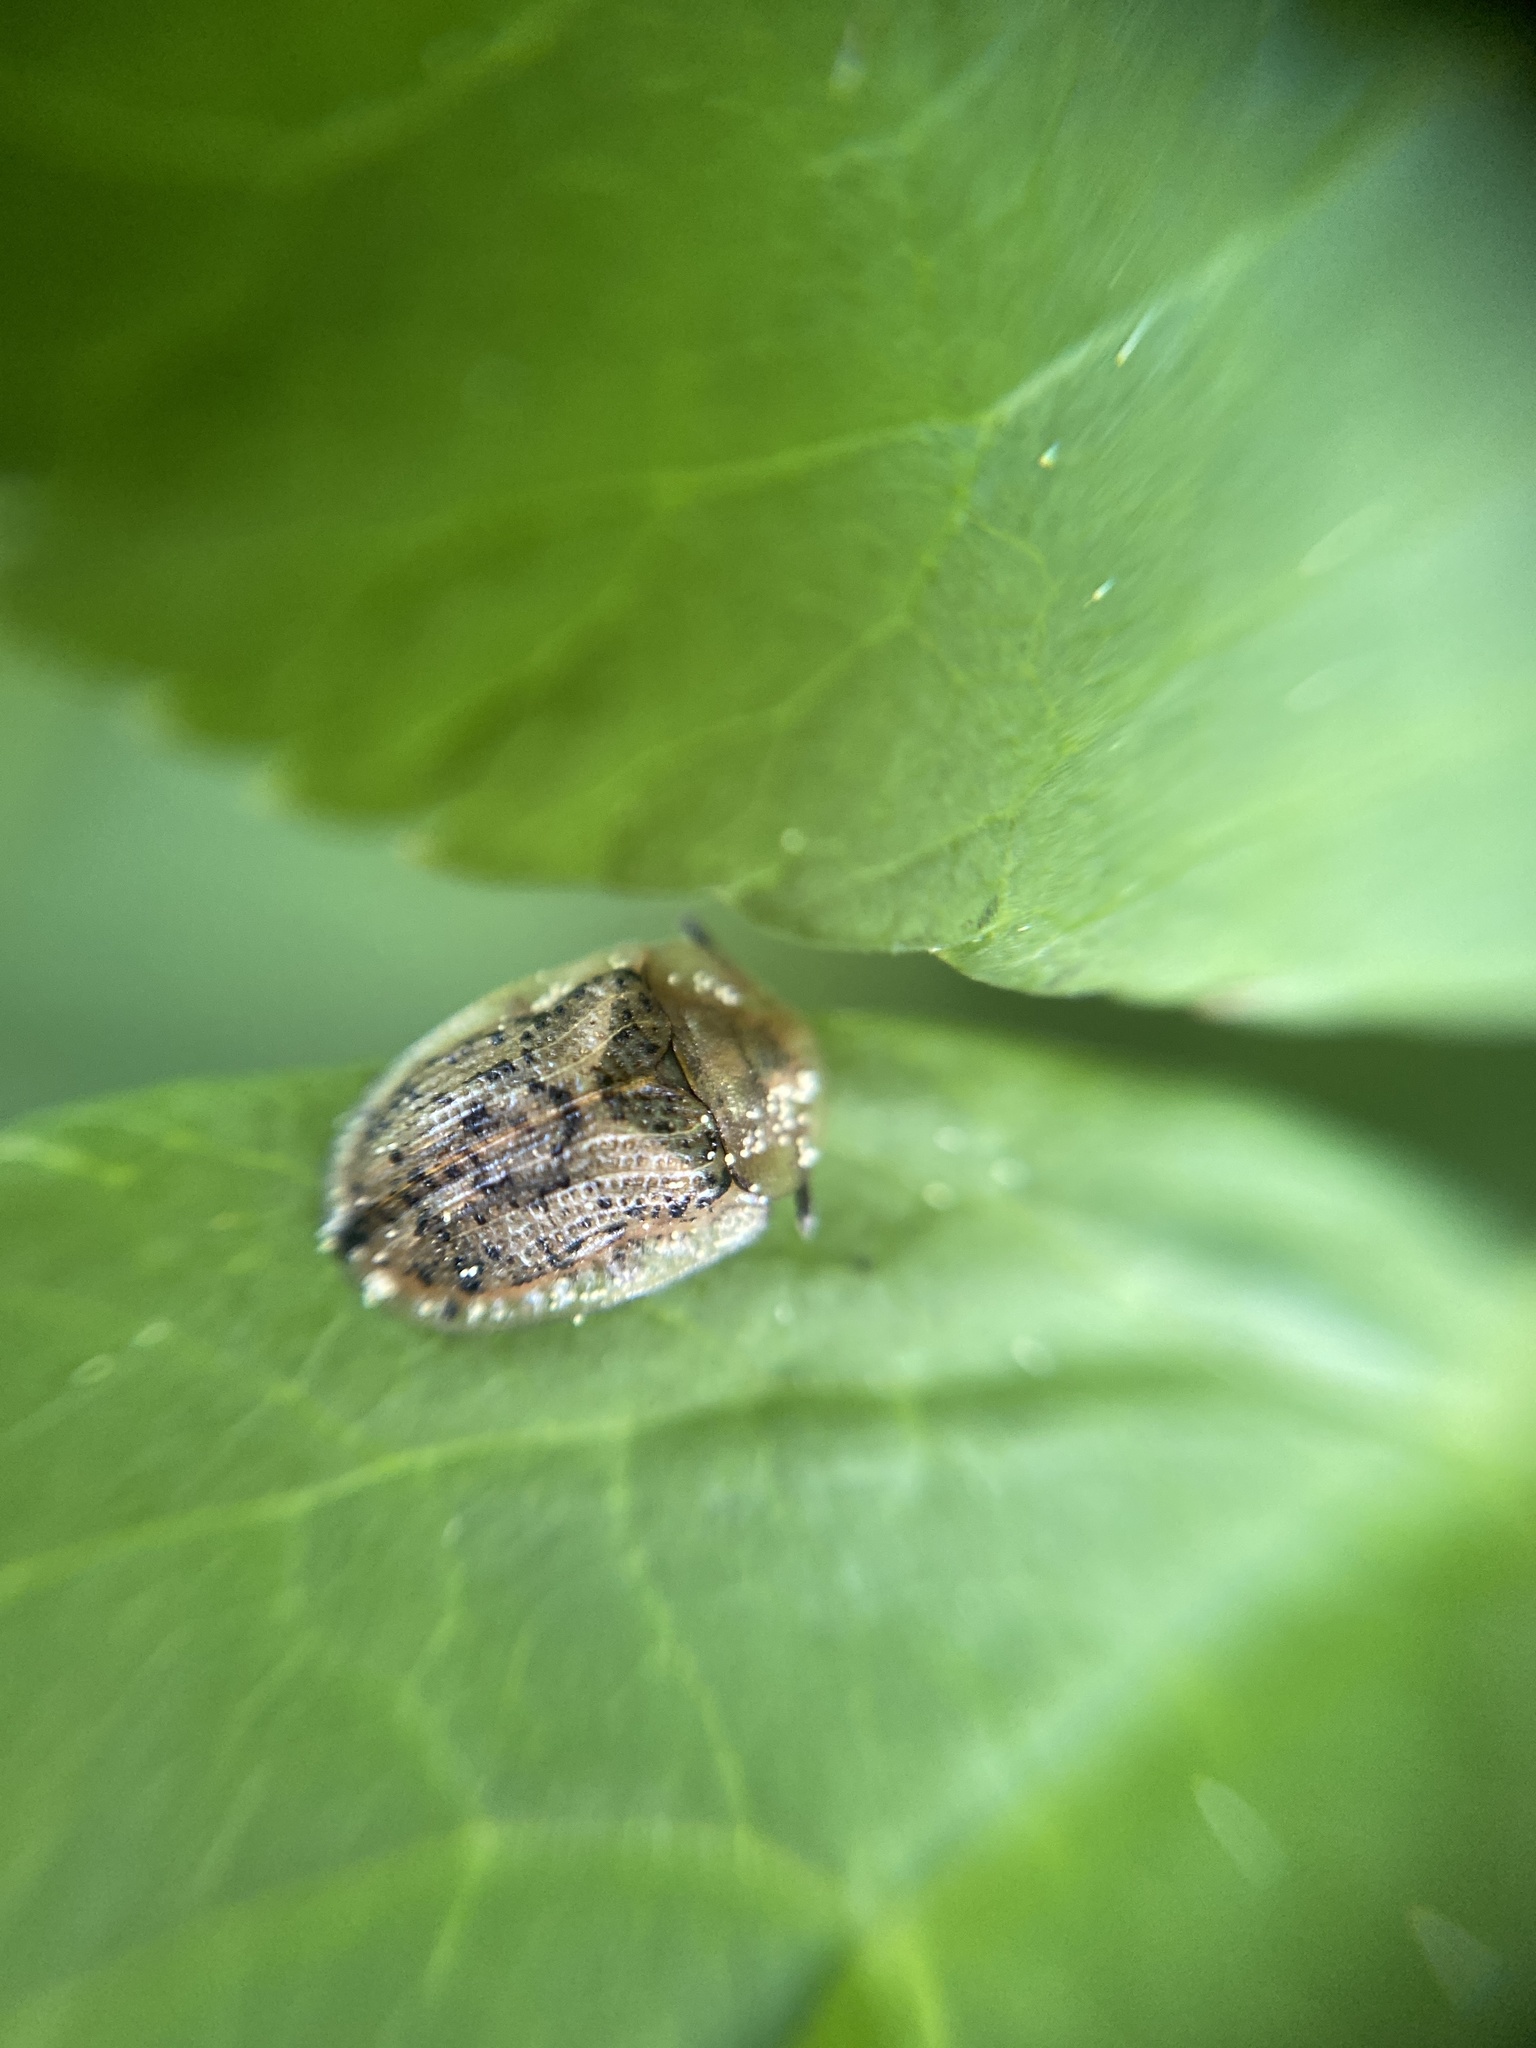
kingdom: Animalia
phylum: Arthropoda
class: Insecta
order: Coleoptera
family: Chrysomelidae
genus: Cassida
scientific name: Cassida nebulosa
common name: Beet tortoise beetle
